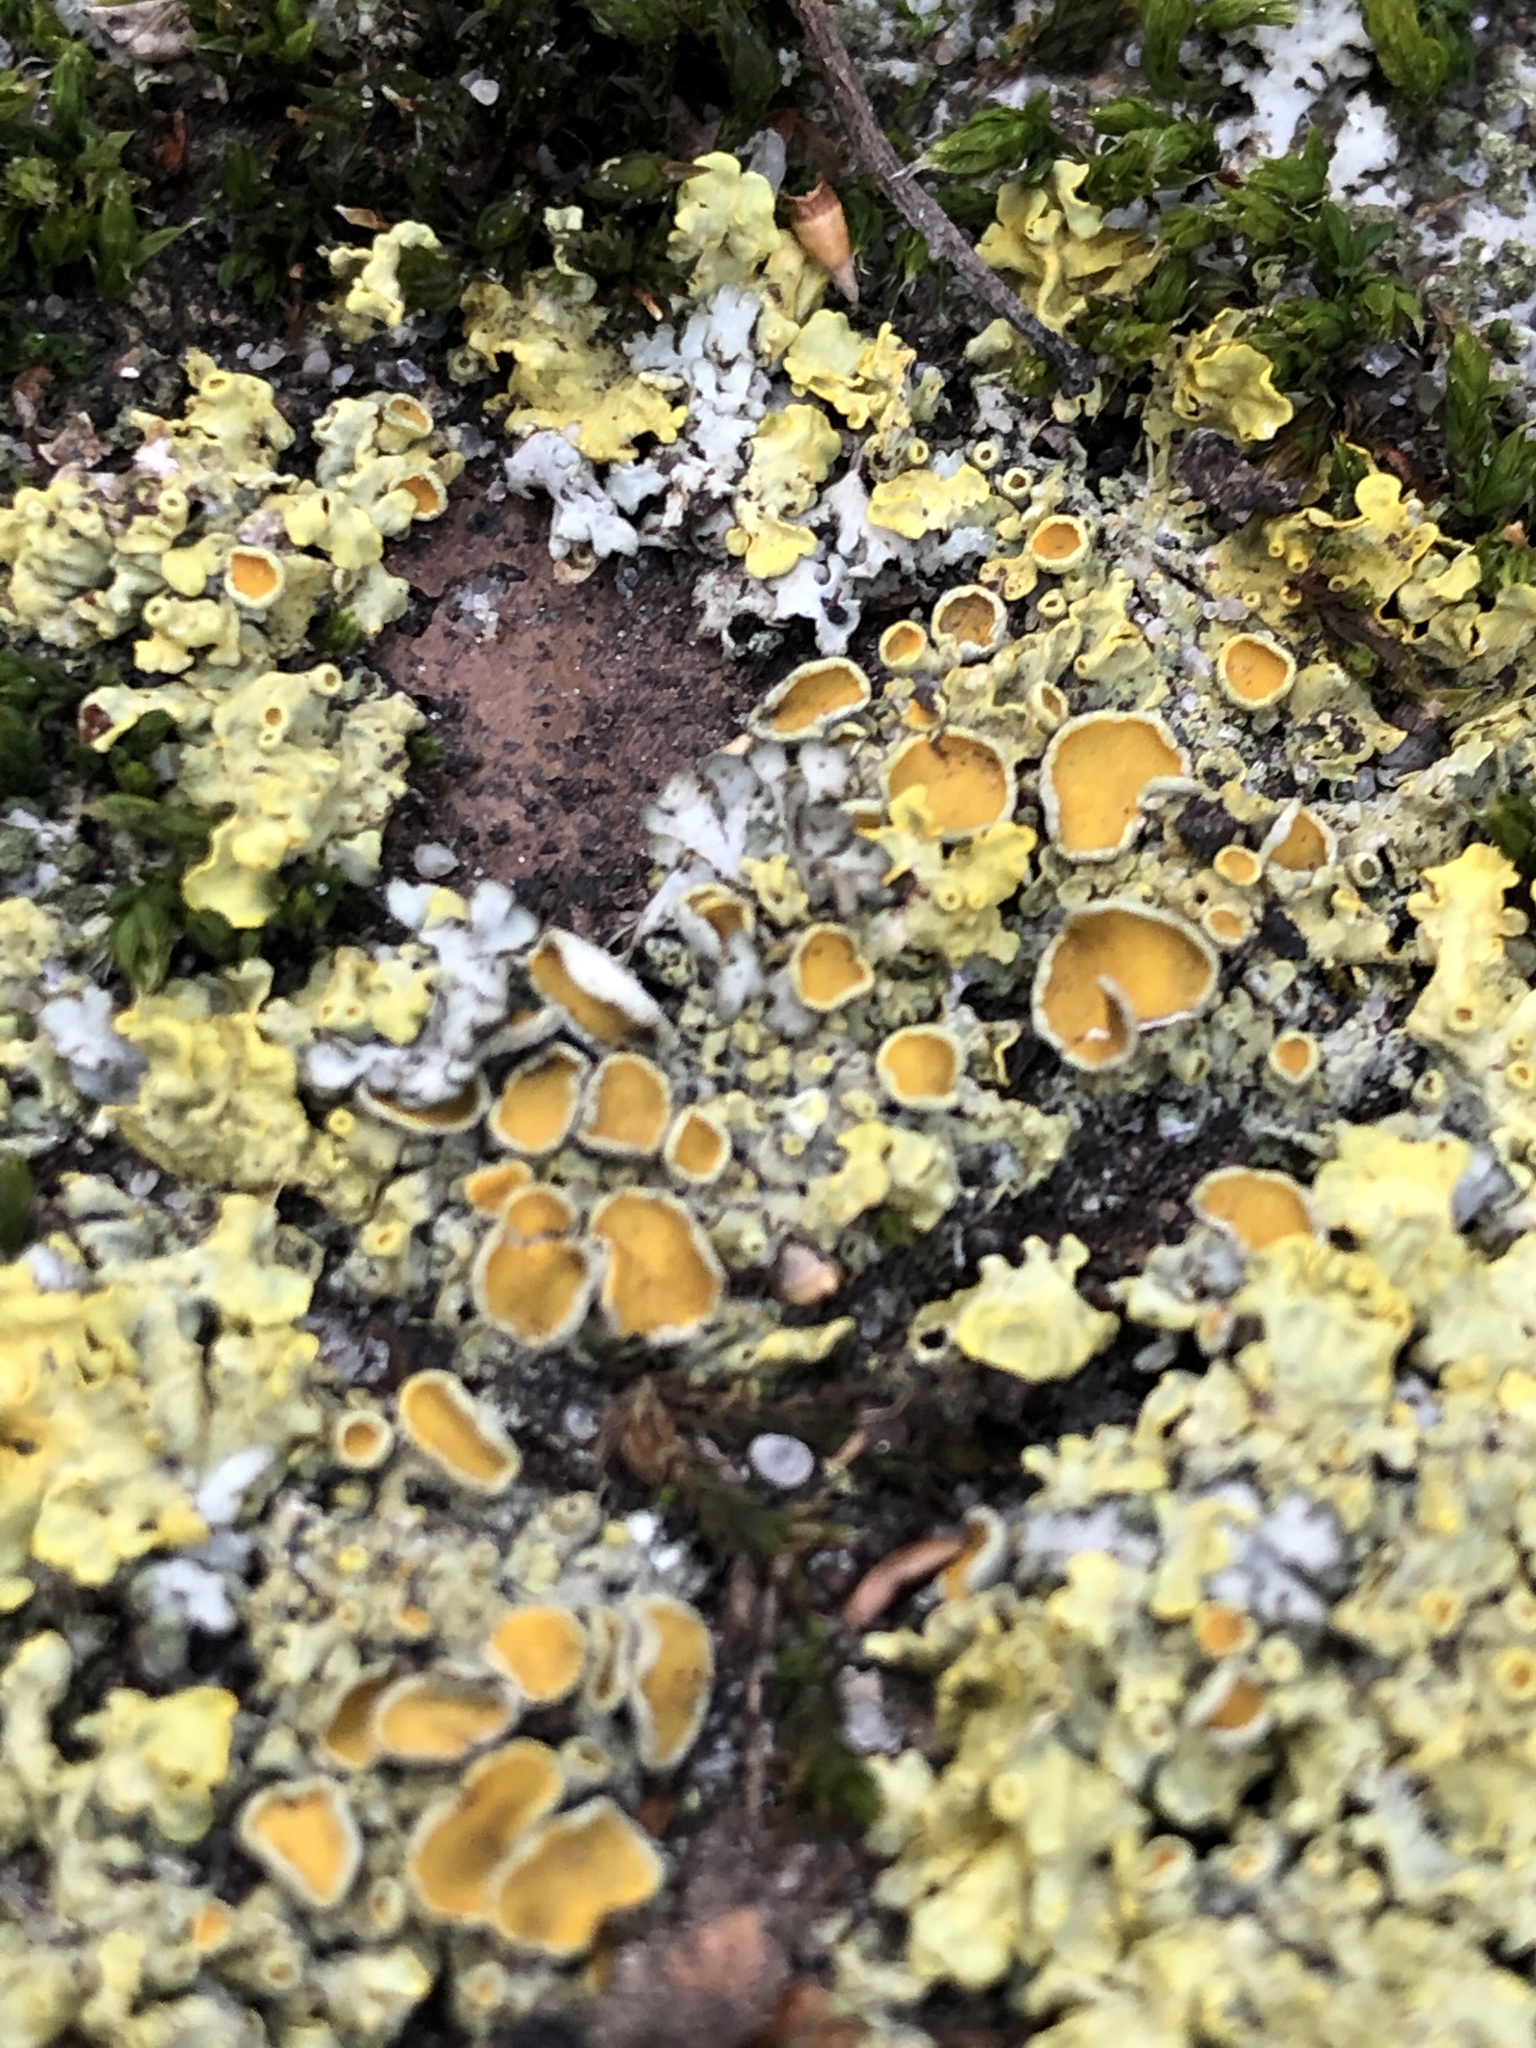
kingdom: Fungi
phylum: Ascomycota
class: Lecanoromycetes
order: Teloschistales
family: Teloschistaceae
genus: Xanthoria
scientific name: Xanthoria parietina
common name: Common orange lichen
